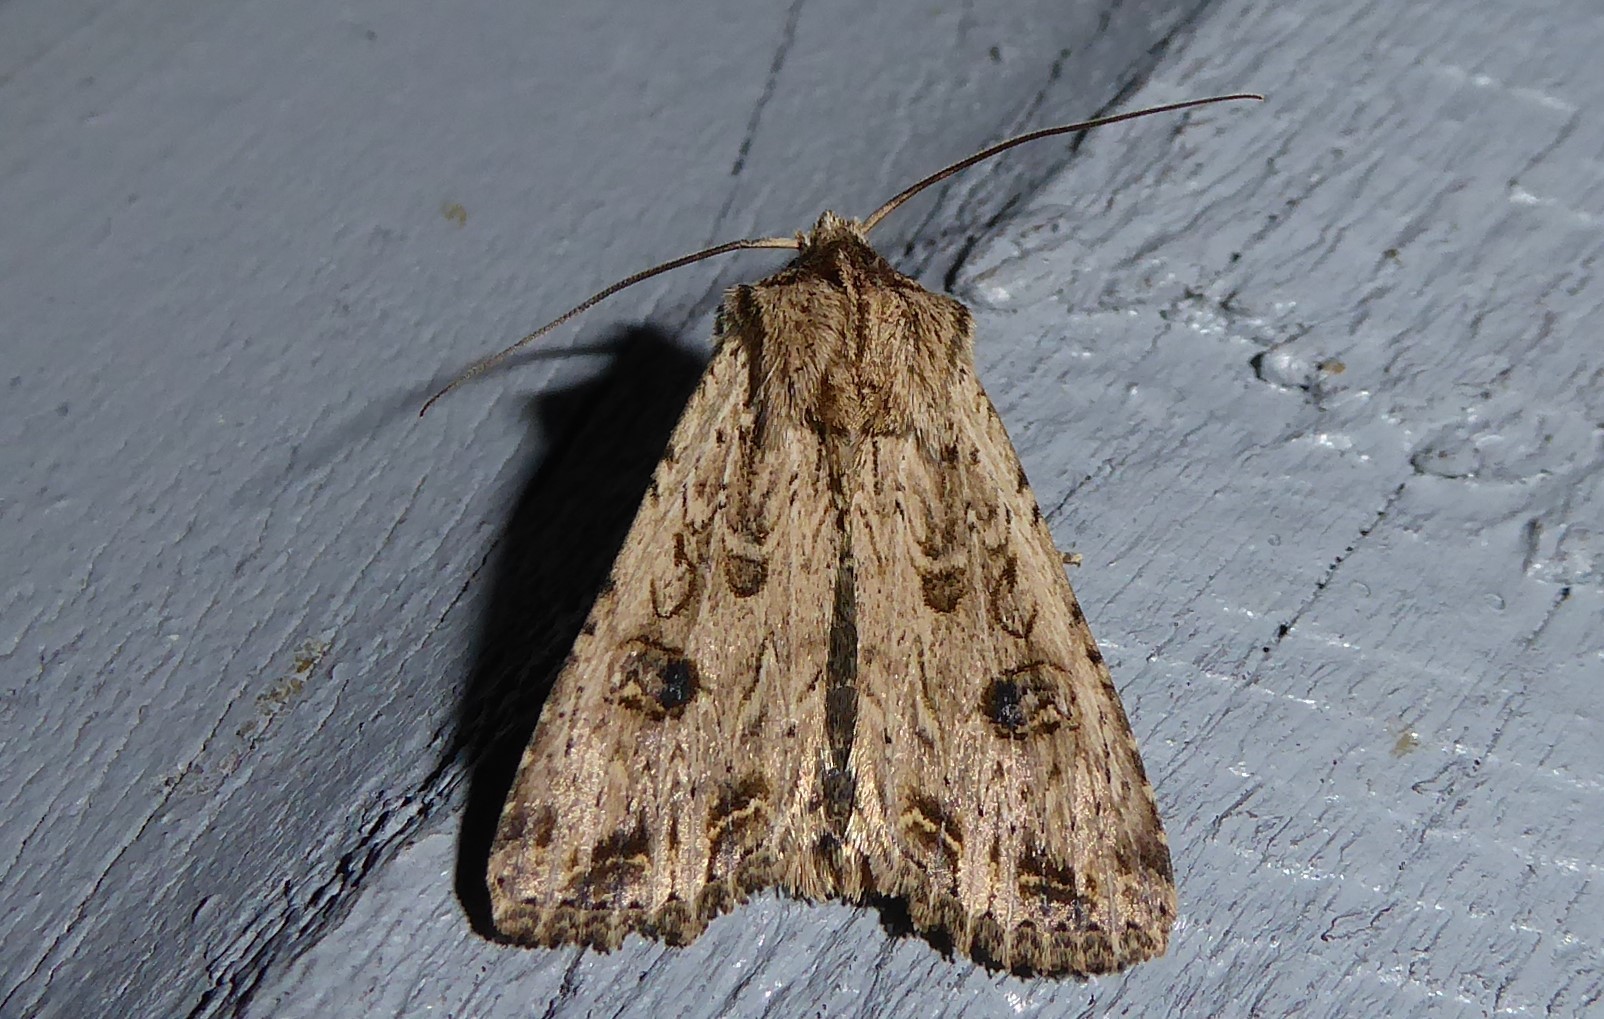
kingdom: Animalia
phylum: Arthropoda
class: Insecta
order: Lepidoptera
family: Noctuidae
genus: Ichneutica
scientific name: Ichneutica lignana
